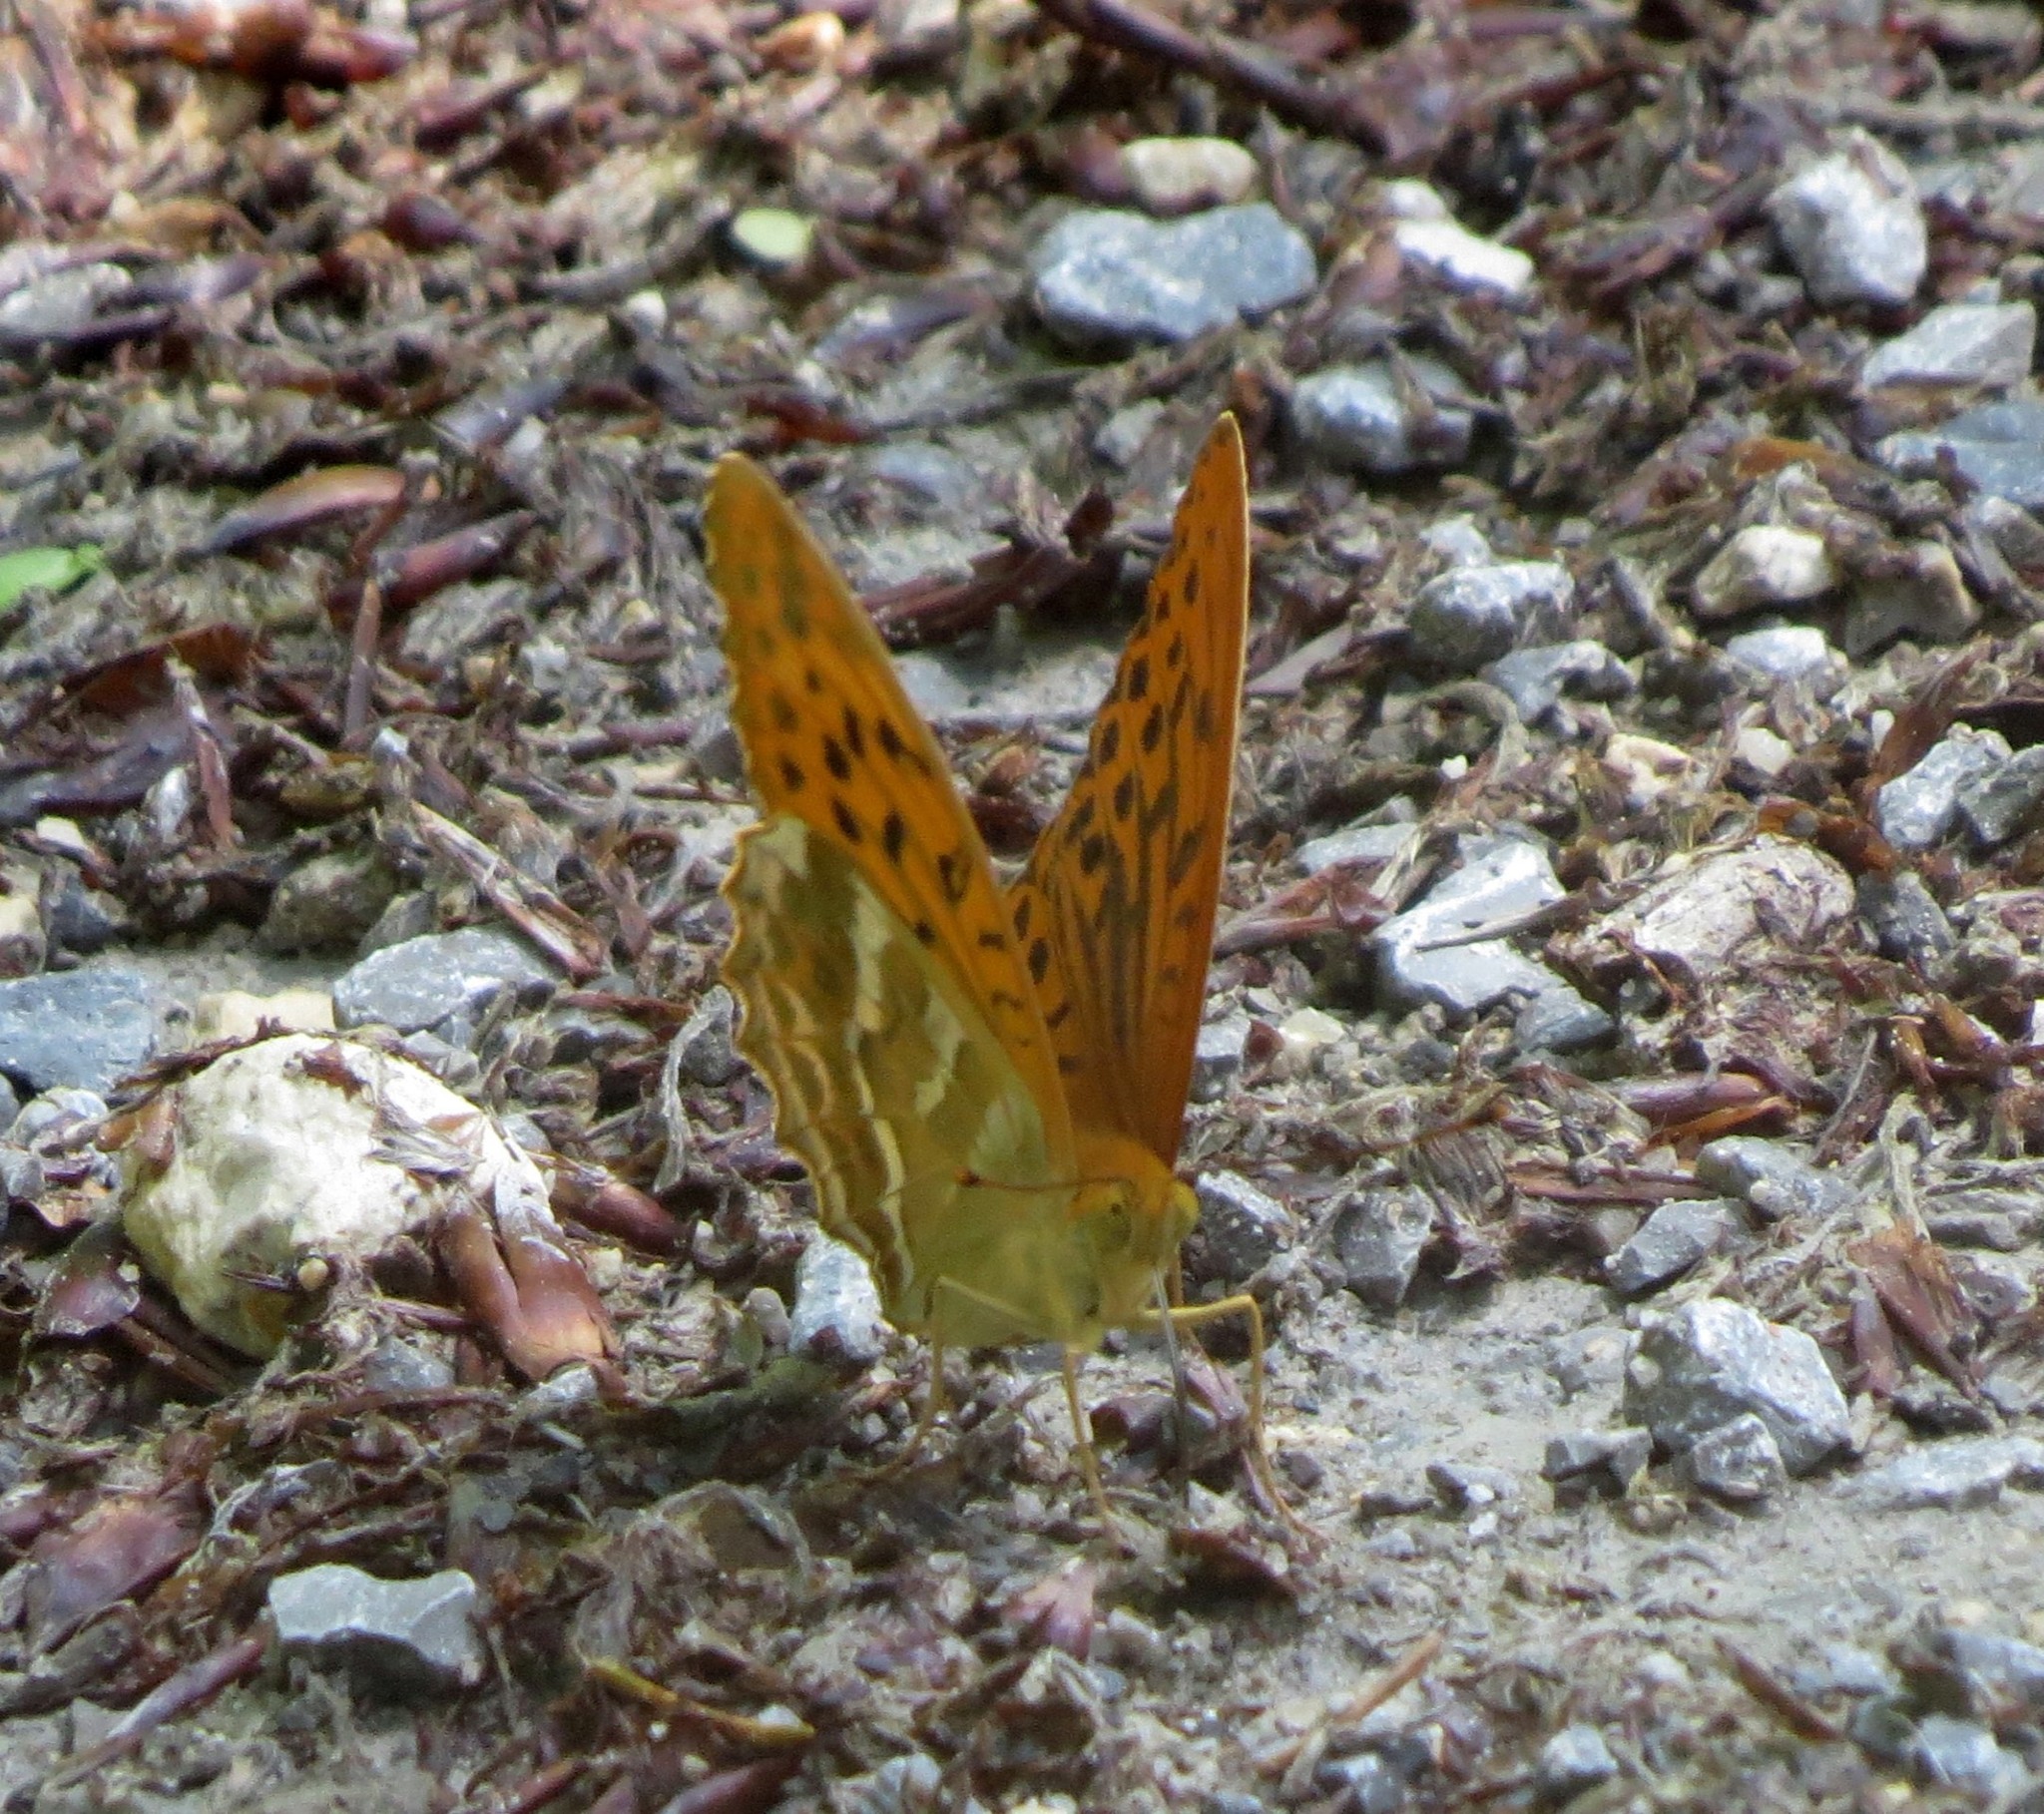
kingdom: Animalia
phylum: Arthropoda
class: Insecta
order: Lepidoptera
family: Nymphalidae
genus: Argynnis
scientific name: Argynnis paphia
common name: Silver-washed fritillary
